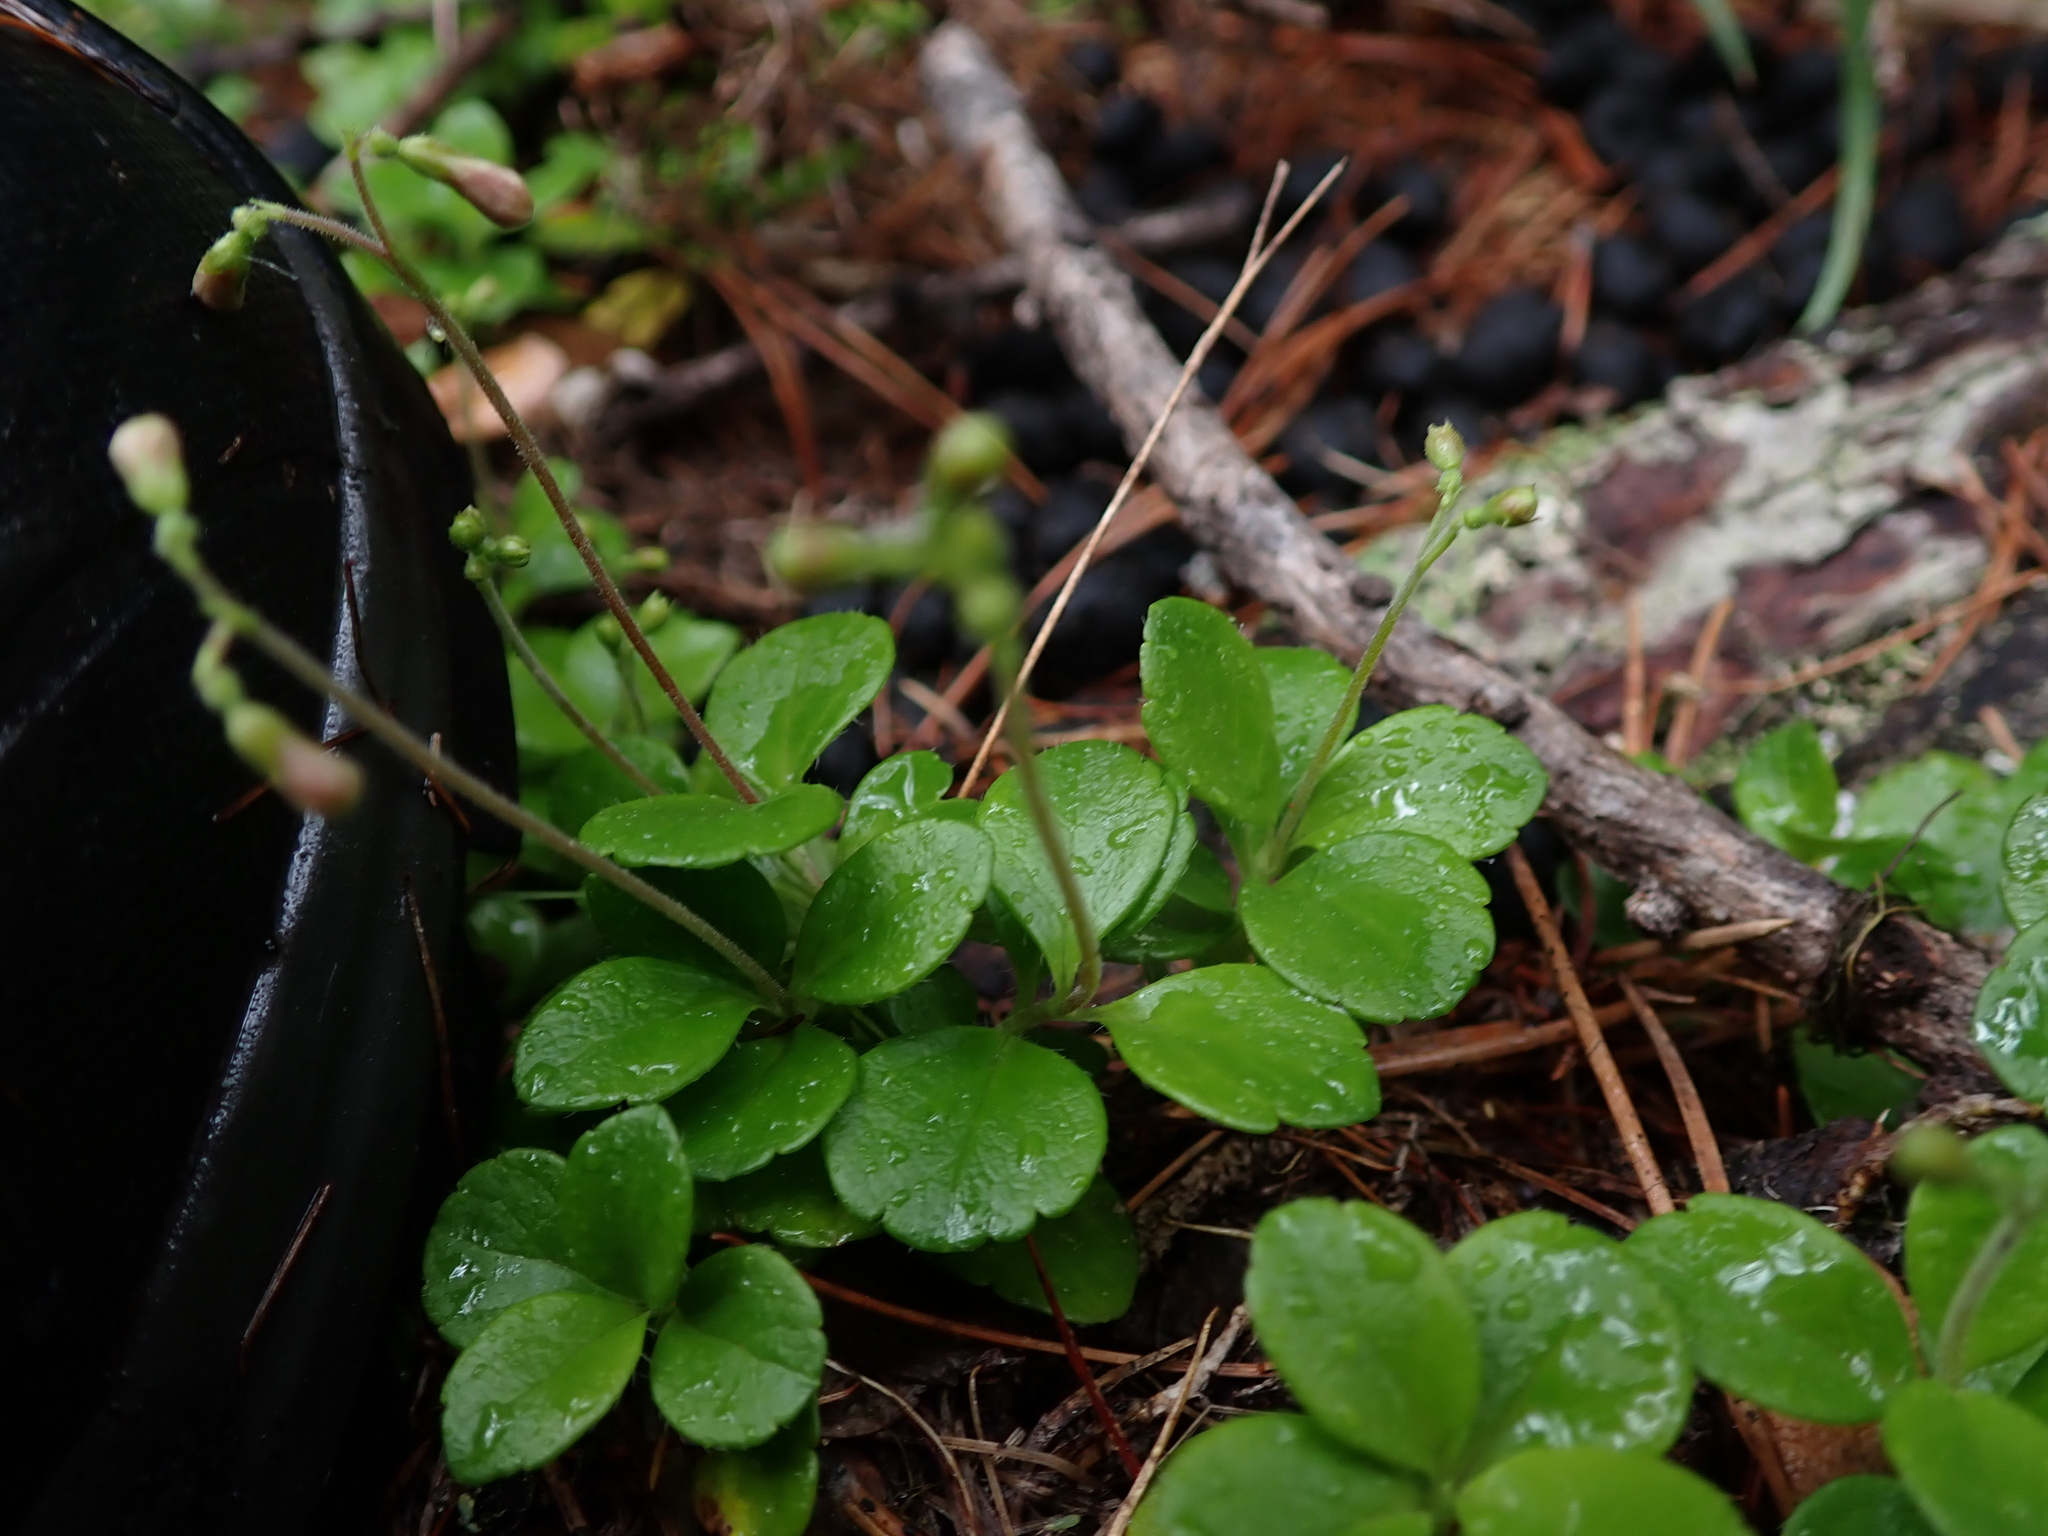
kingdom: Plantae
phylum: Tracheophyta
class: Magnoliopsida
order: Dipsacales
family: Caprifoliaceae
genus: Linnaea
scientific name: Linnaea borealis
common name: Twinflower
